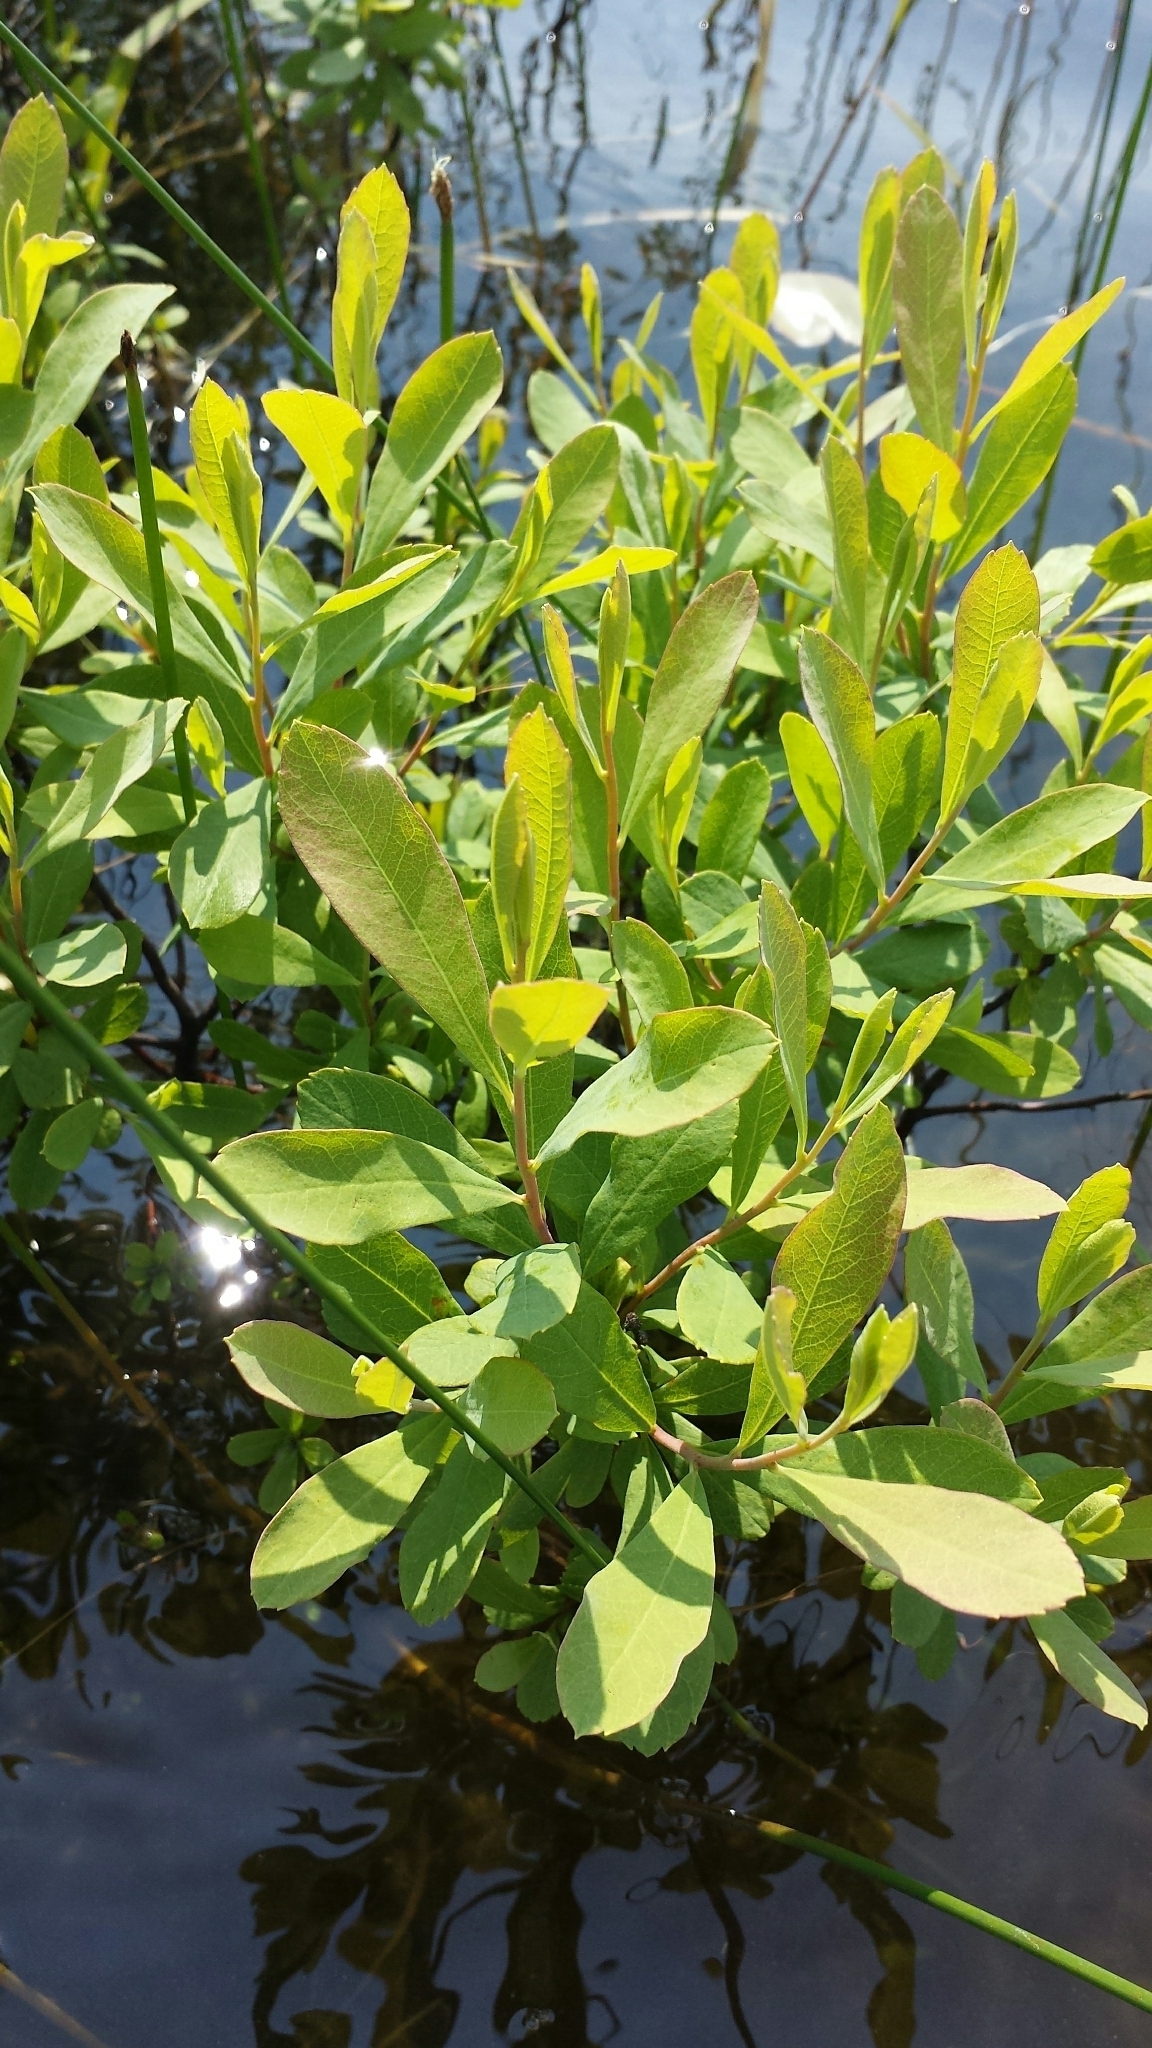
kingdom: Plantae
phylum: Tracheophyta
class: Magnoliopsida
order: Fagales
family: Myricaceae
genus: Myrica
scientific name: Myrica gale
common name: Sweet gale
